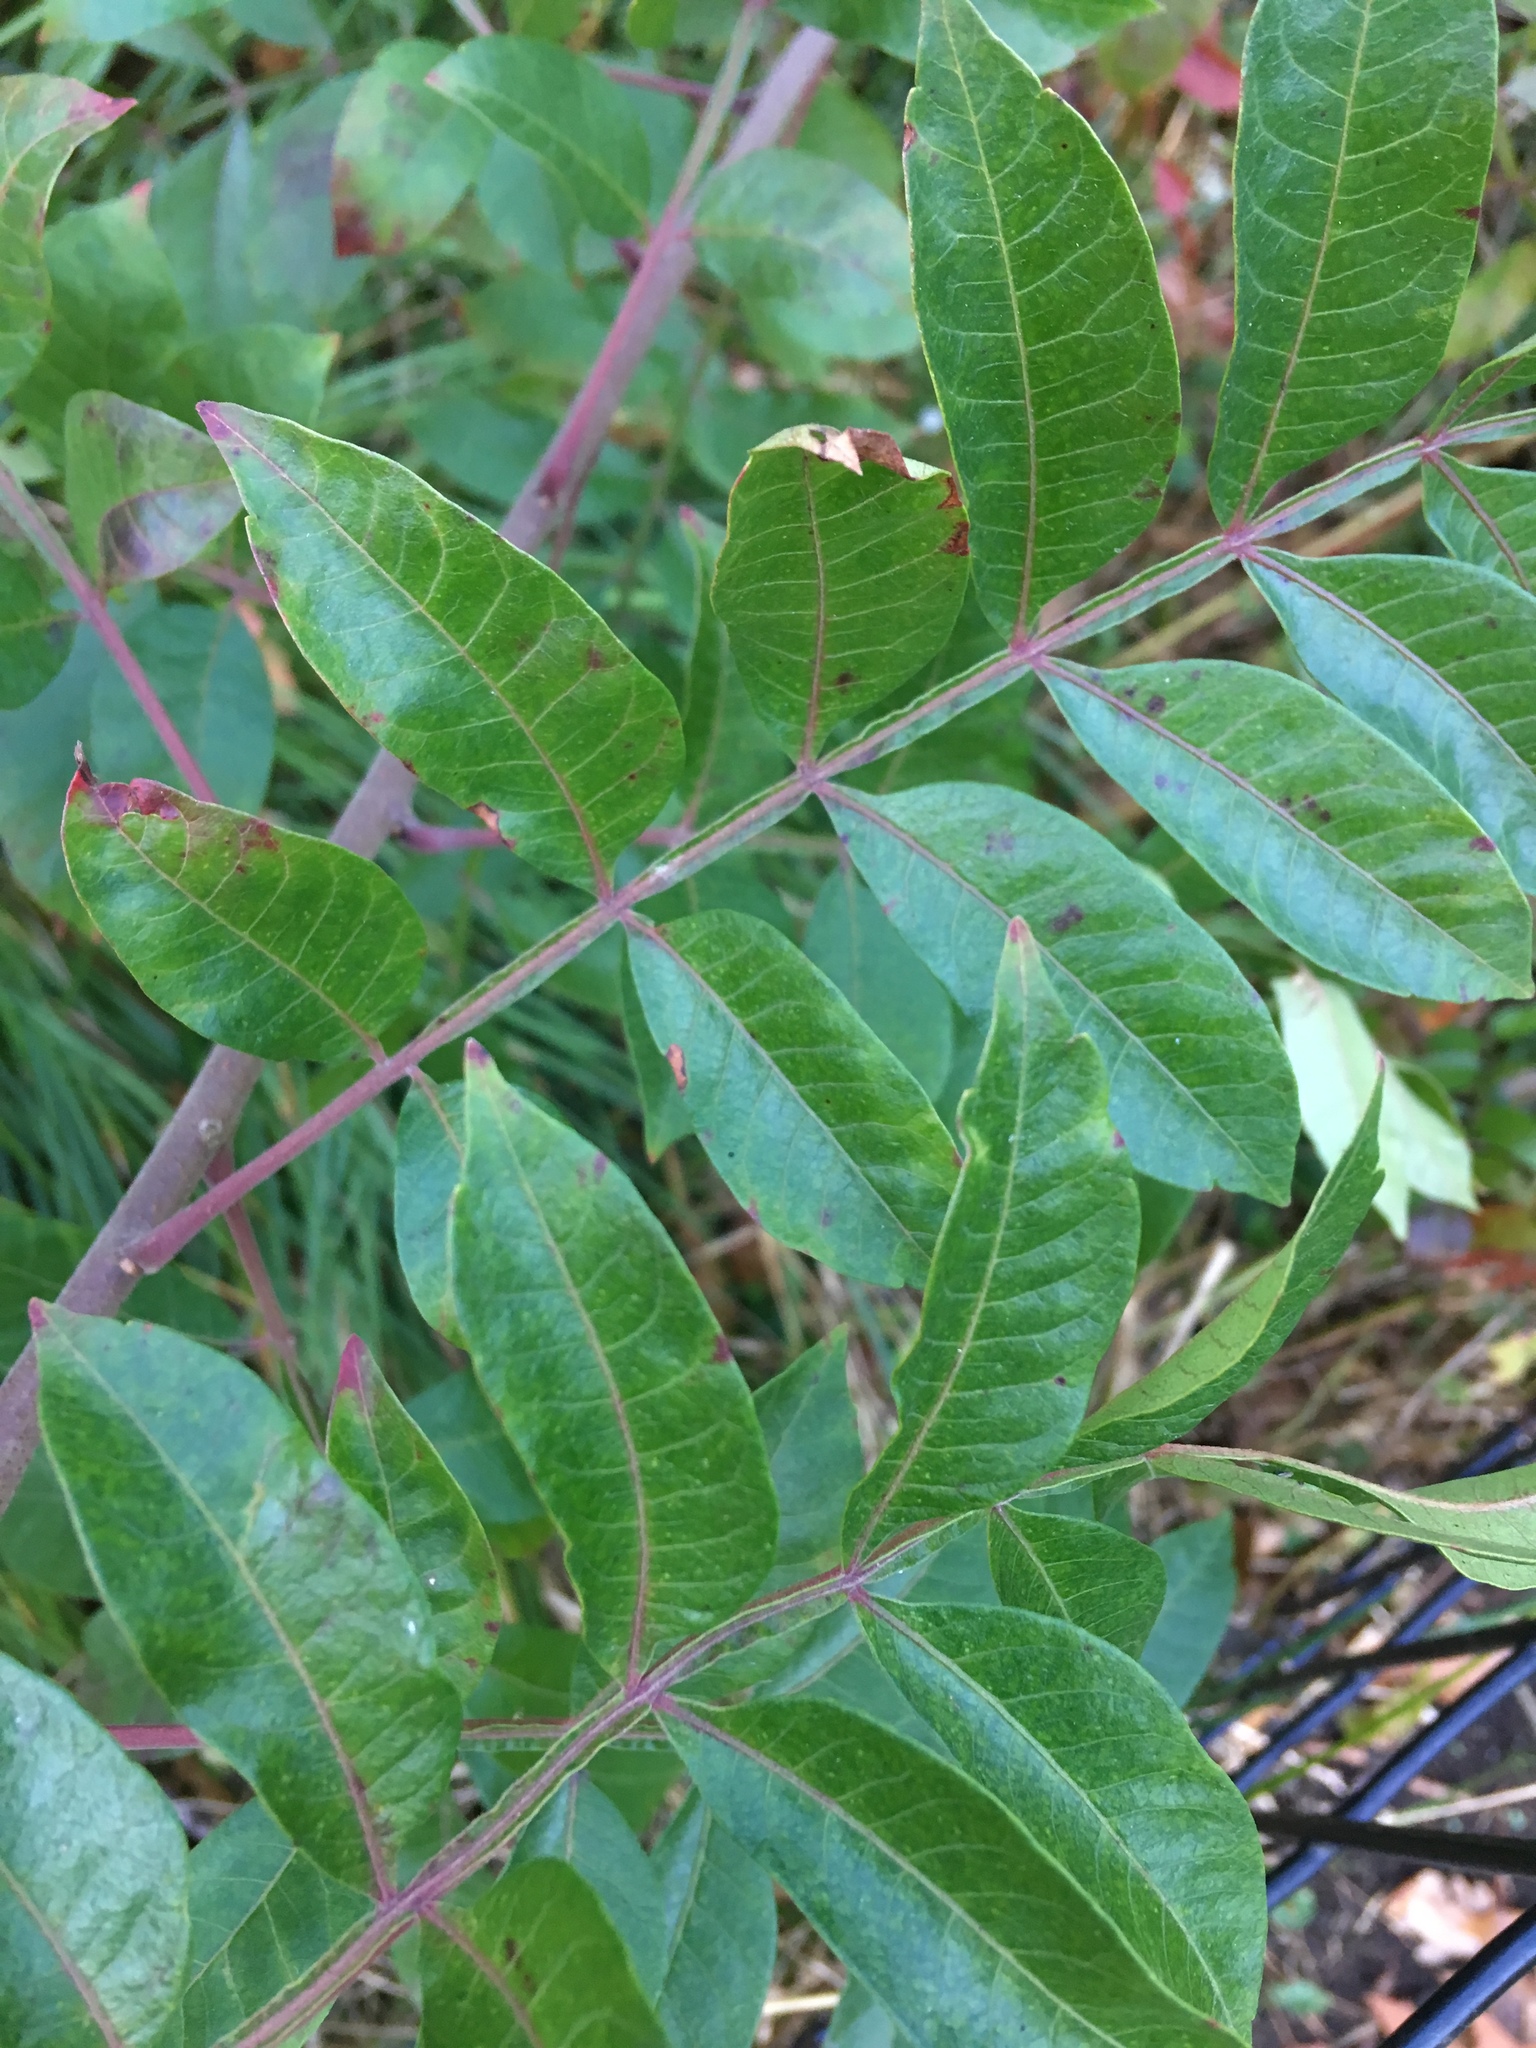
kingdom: Plantae
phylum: Tracheophyta
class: Magnoliopsida
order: Sapindales
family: Anacardiaceae
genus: Rhus
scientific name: Rhus copallina
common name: Shining sumac
